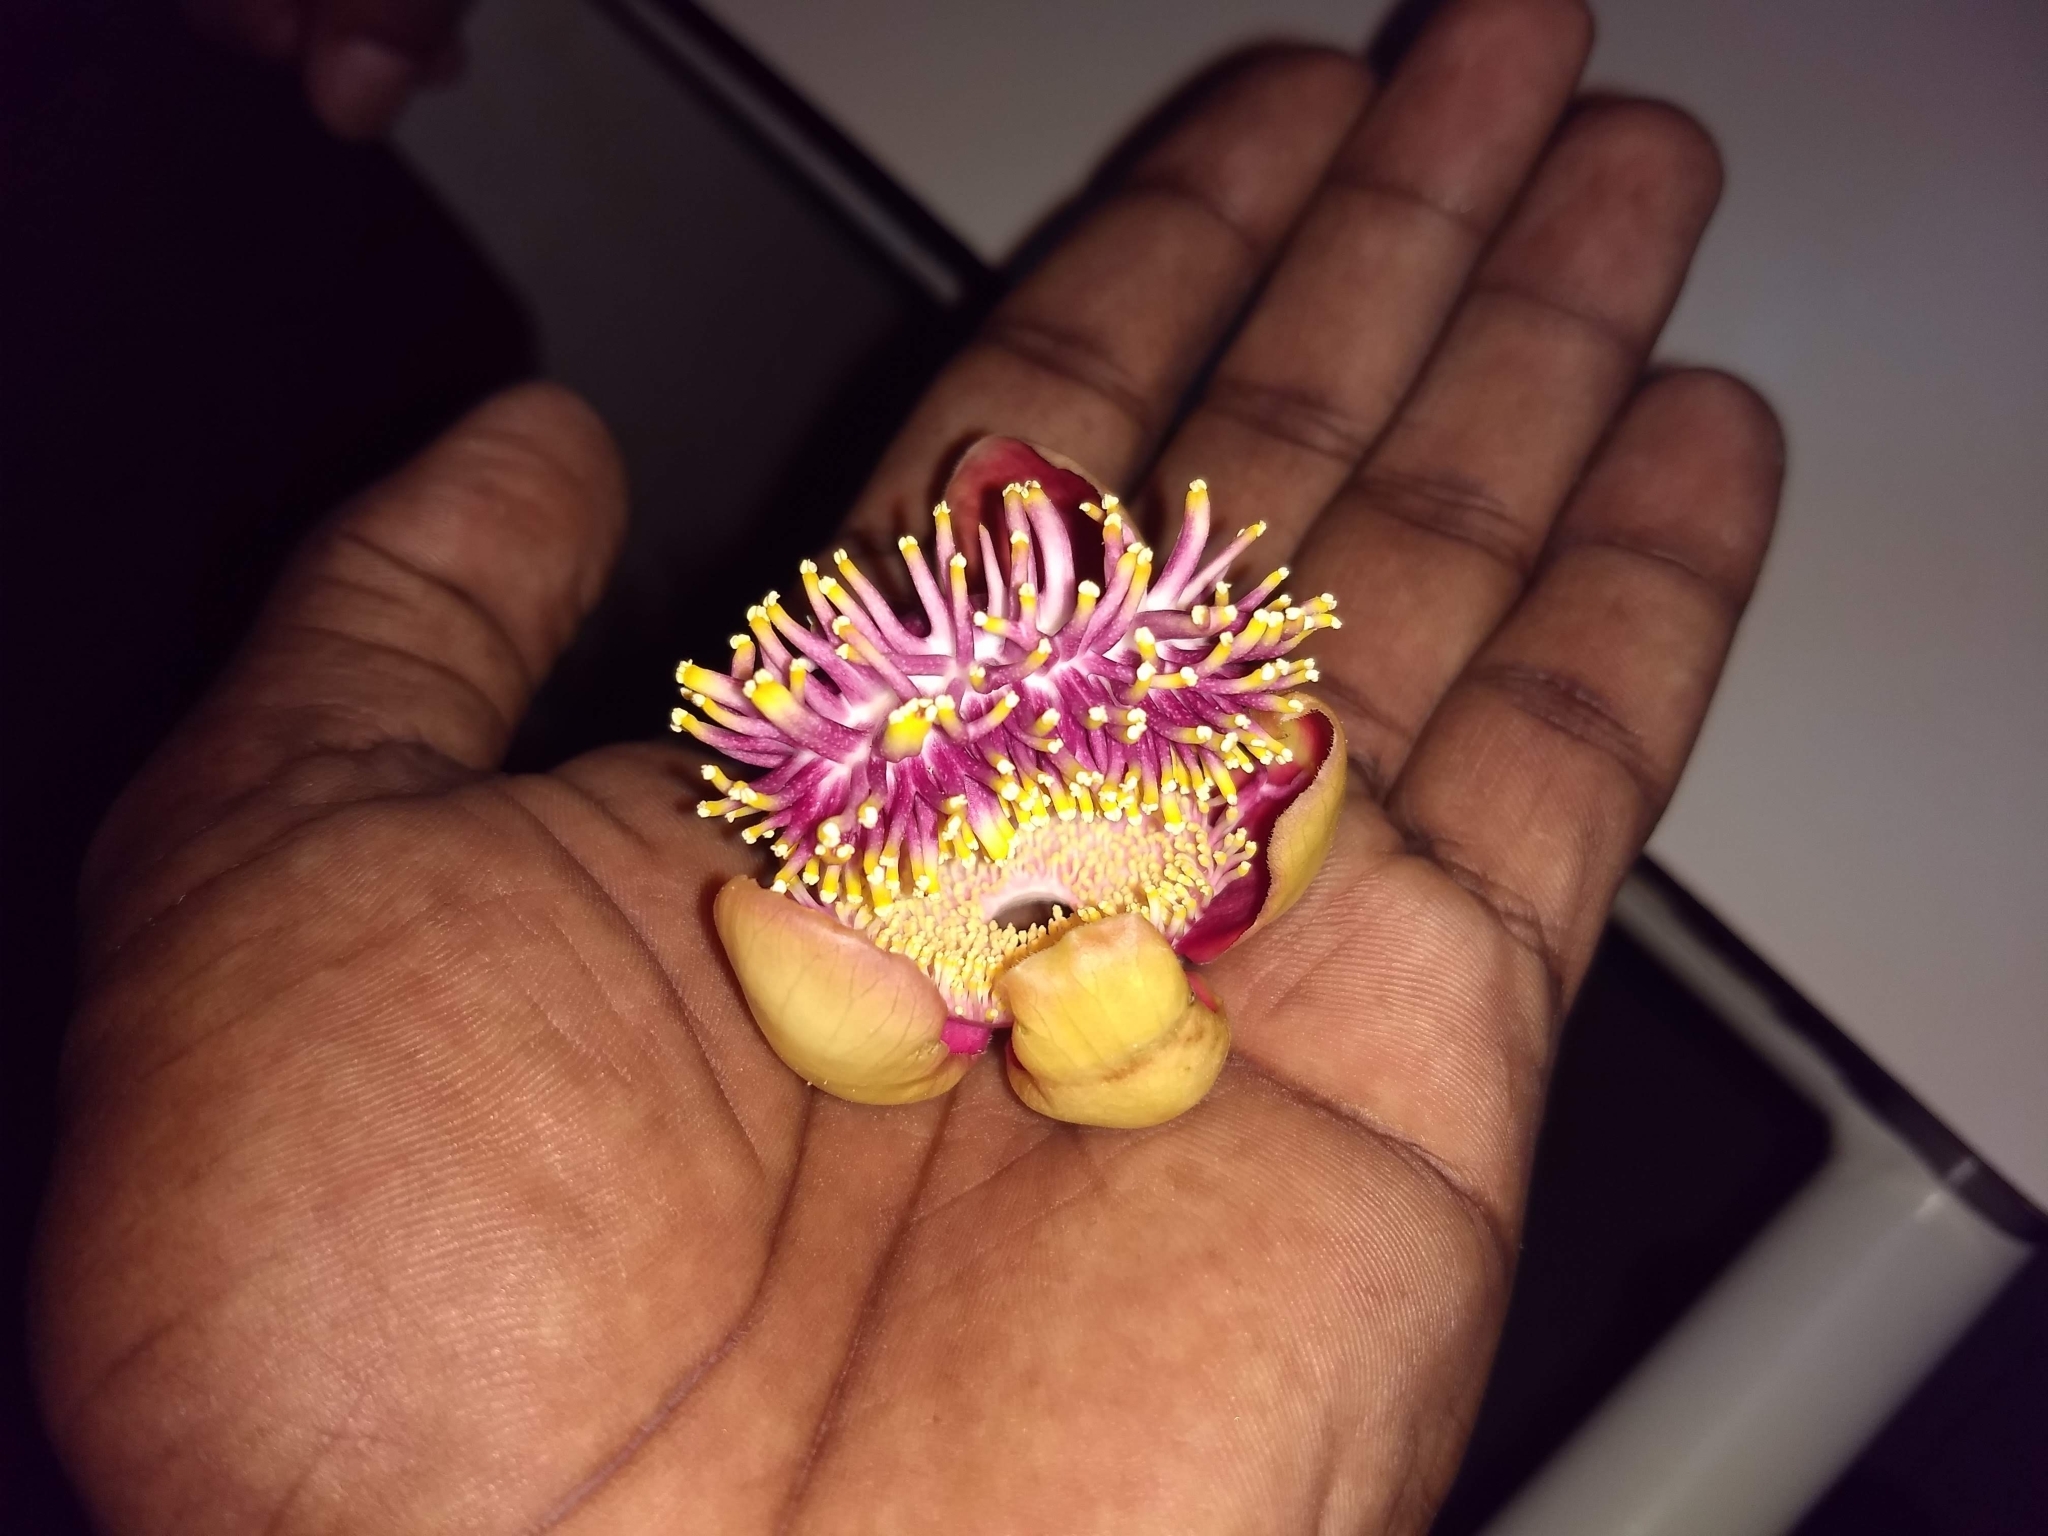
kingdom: Plantae
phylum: Tracheophyta
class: Magnoliopsida
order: Ericales
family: Lecythidaceae
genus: Couroupita
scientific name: Couroupita guianensis
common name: Cannonball tree
